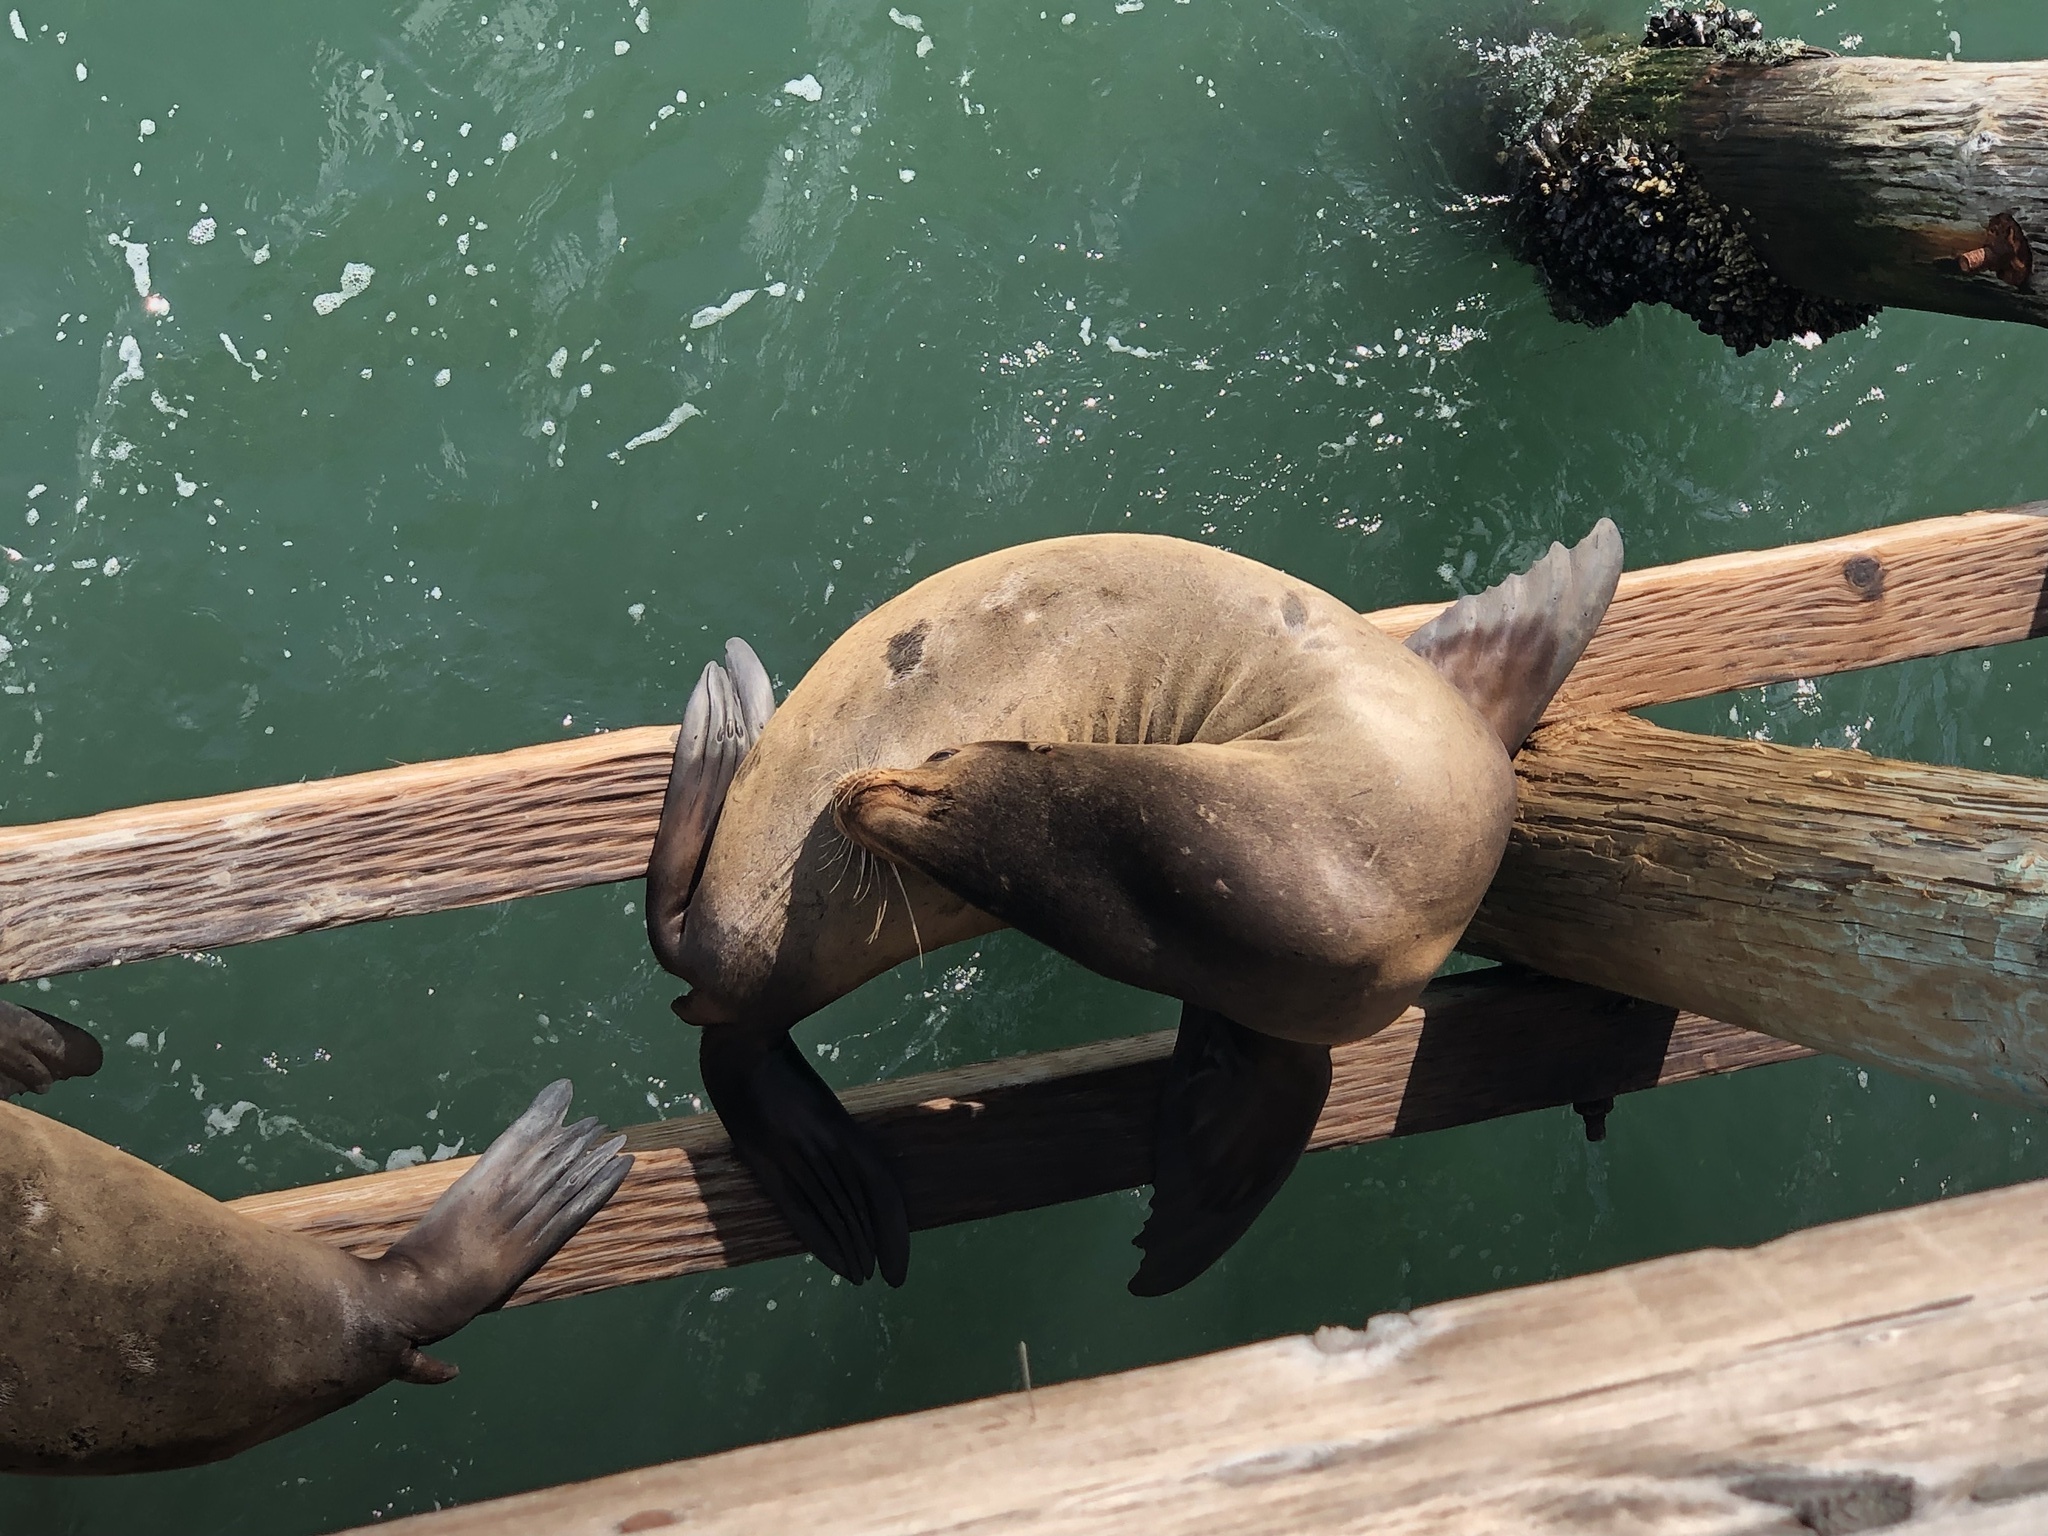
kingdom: Animalia
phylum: Chordata
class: Mammalia
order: Carnivora
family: Otariidae
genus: Zalophus
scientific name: Zalophus californianus
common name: California sea lion
